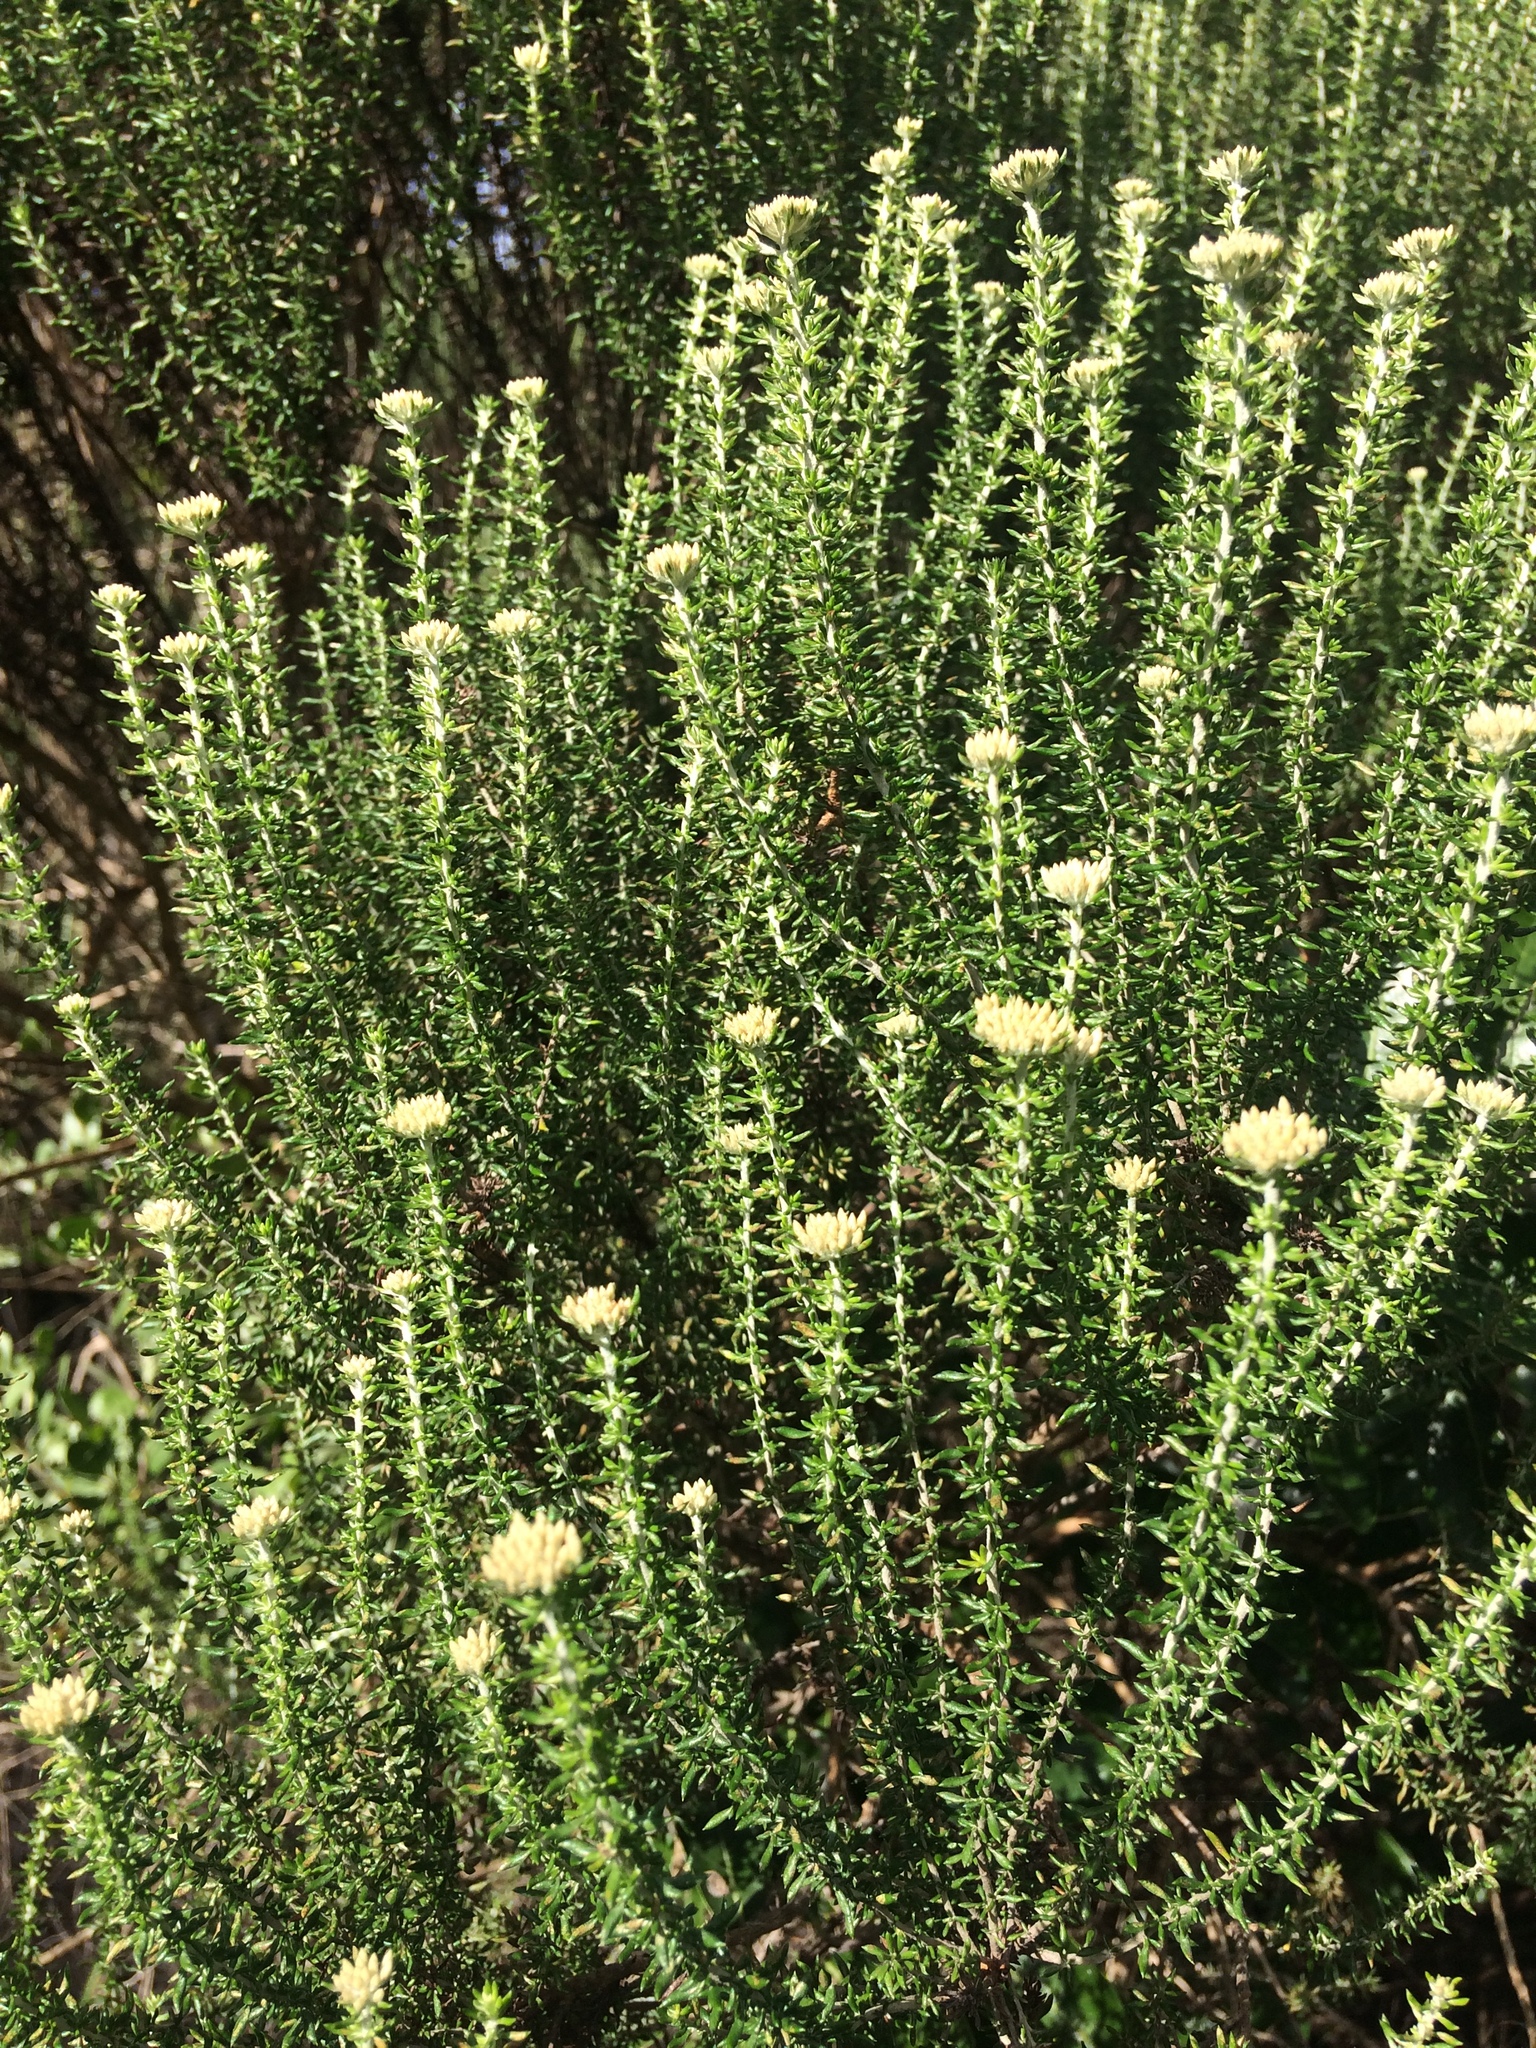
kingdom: Plantae
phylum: Tracheophyta
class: Magnoliopsida
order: Asterales
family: Asteraceae
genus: Metalasia
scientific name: Metalasia muricata
